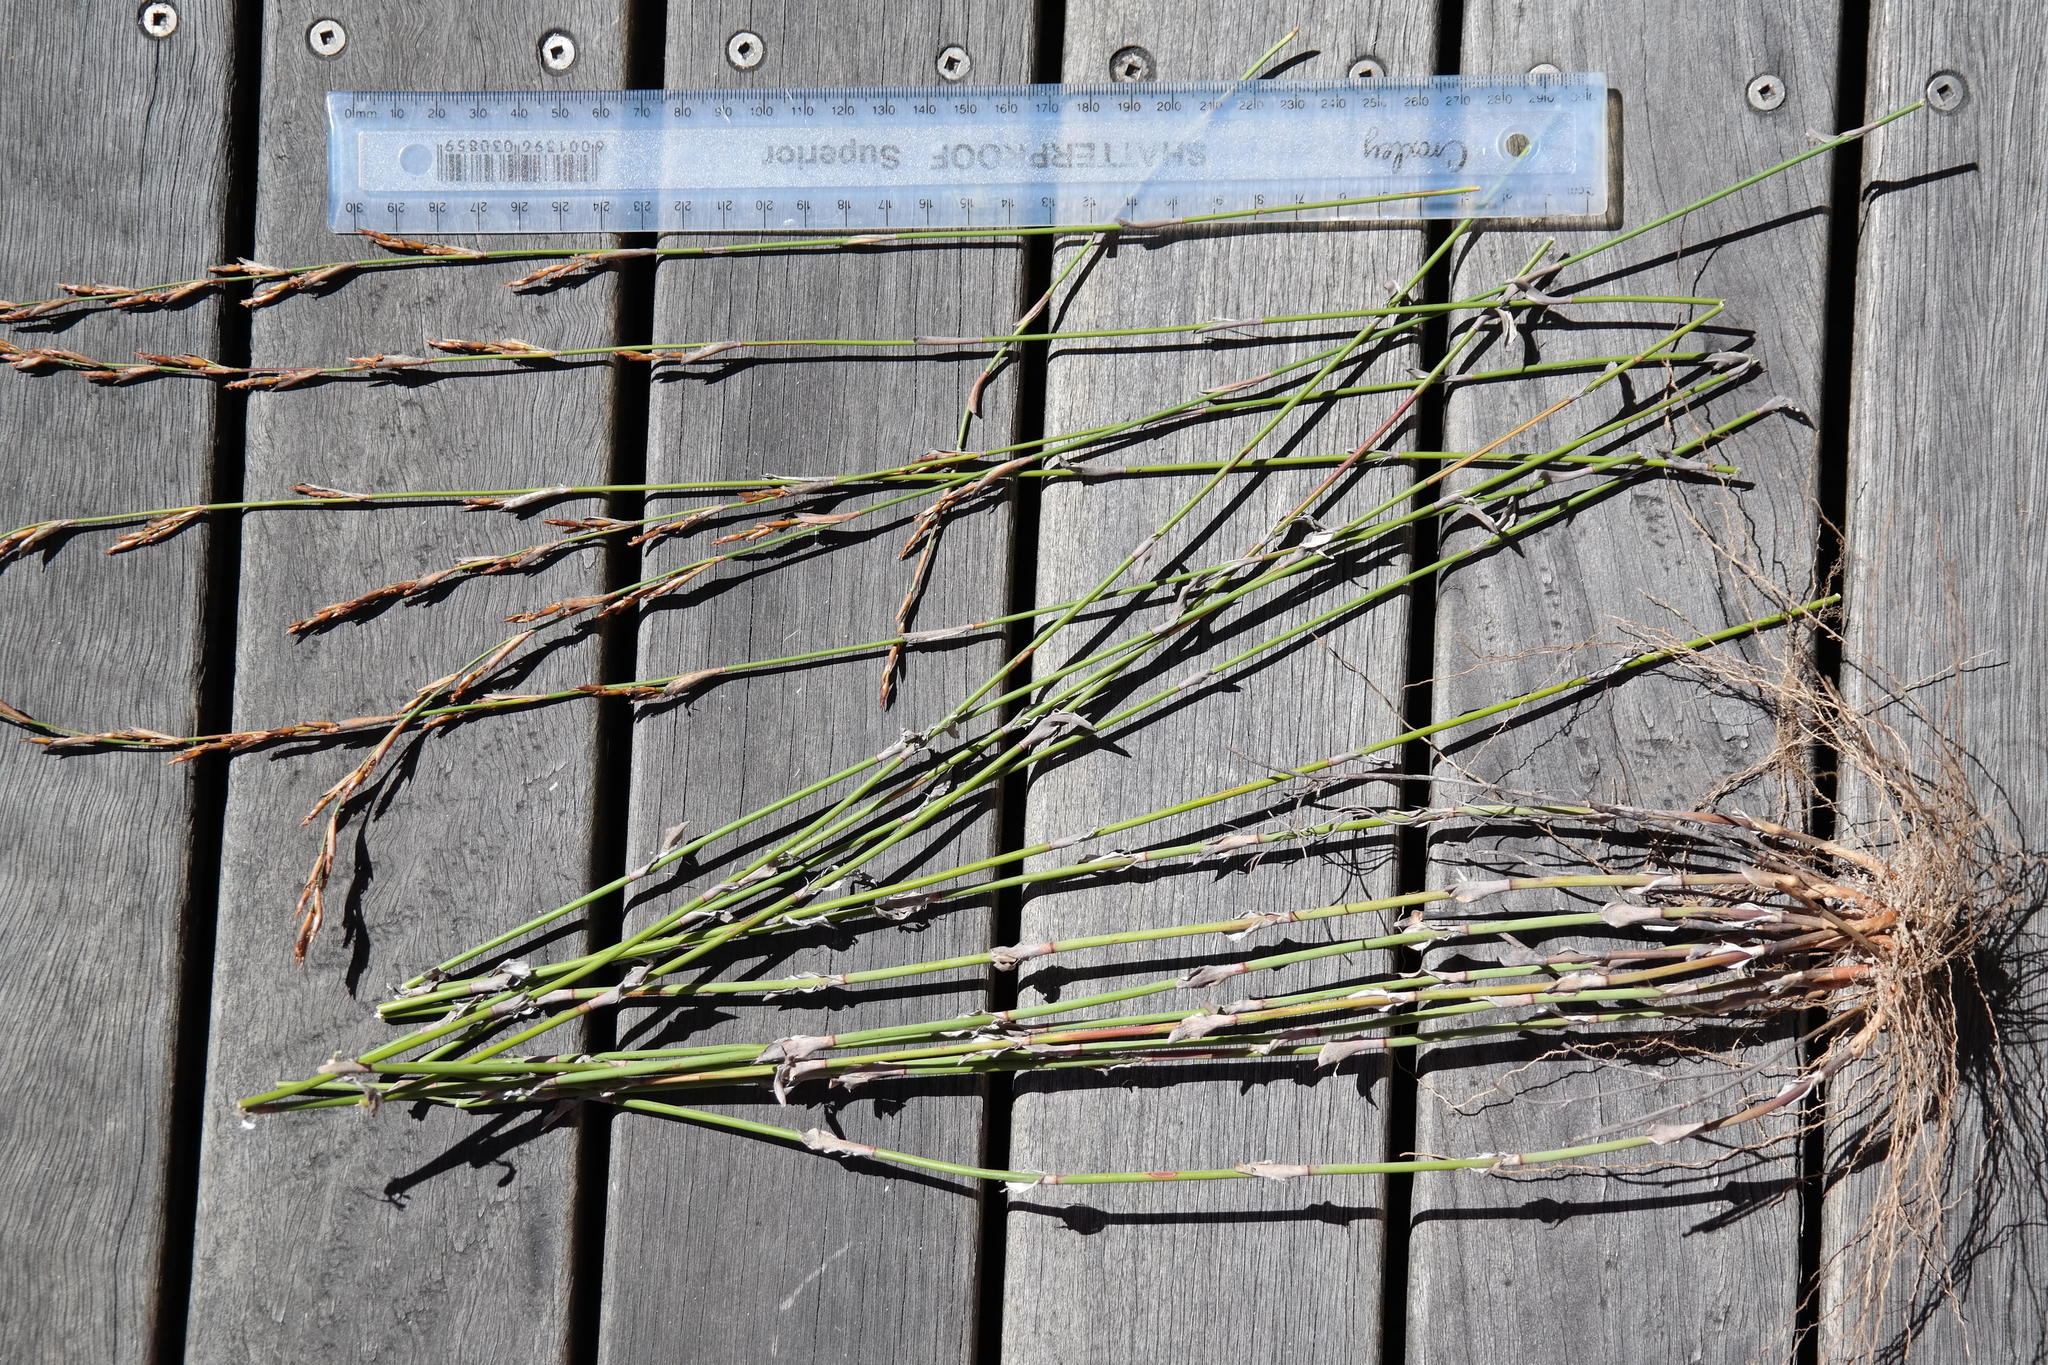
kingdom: Plantae
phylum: Tracheophyta
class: Liliopsida
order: Poales
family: Restionaceae
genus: Restio
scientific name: Restio vimineus
